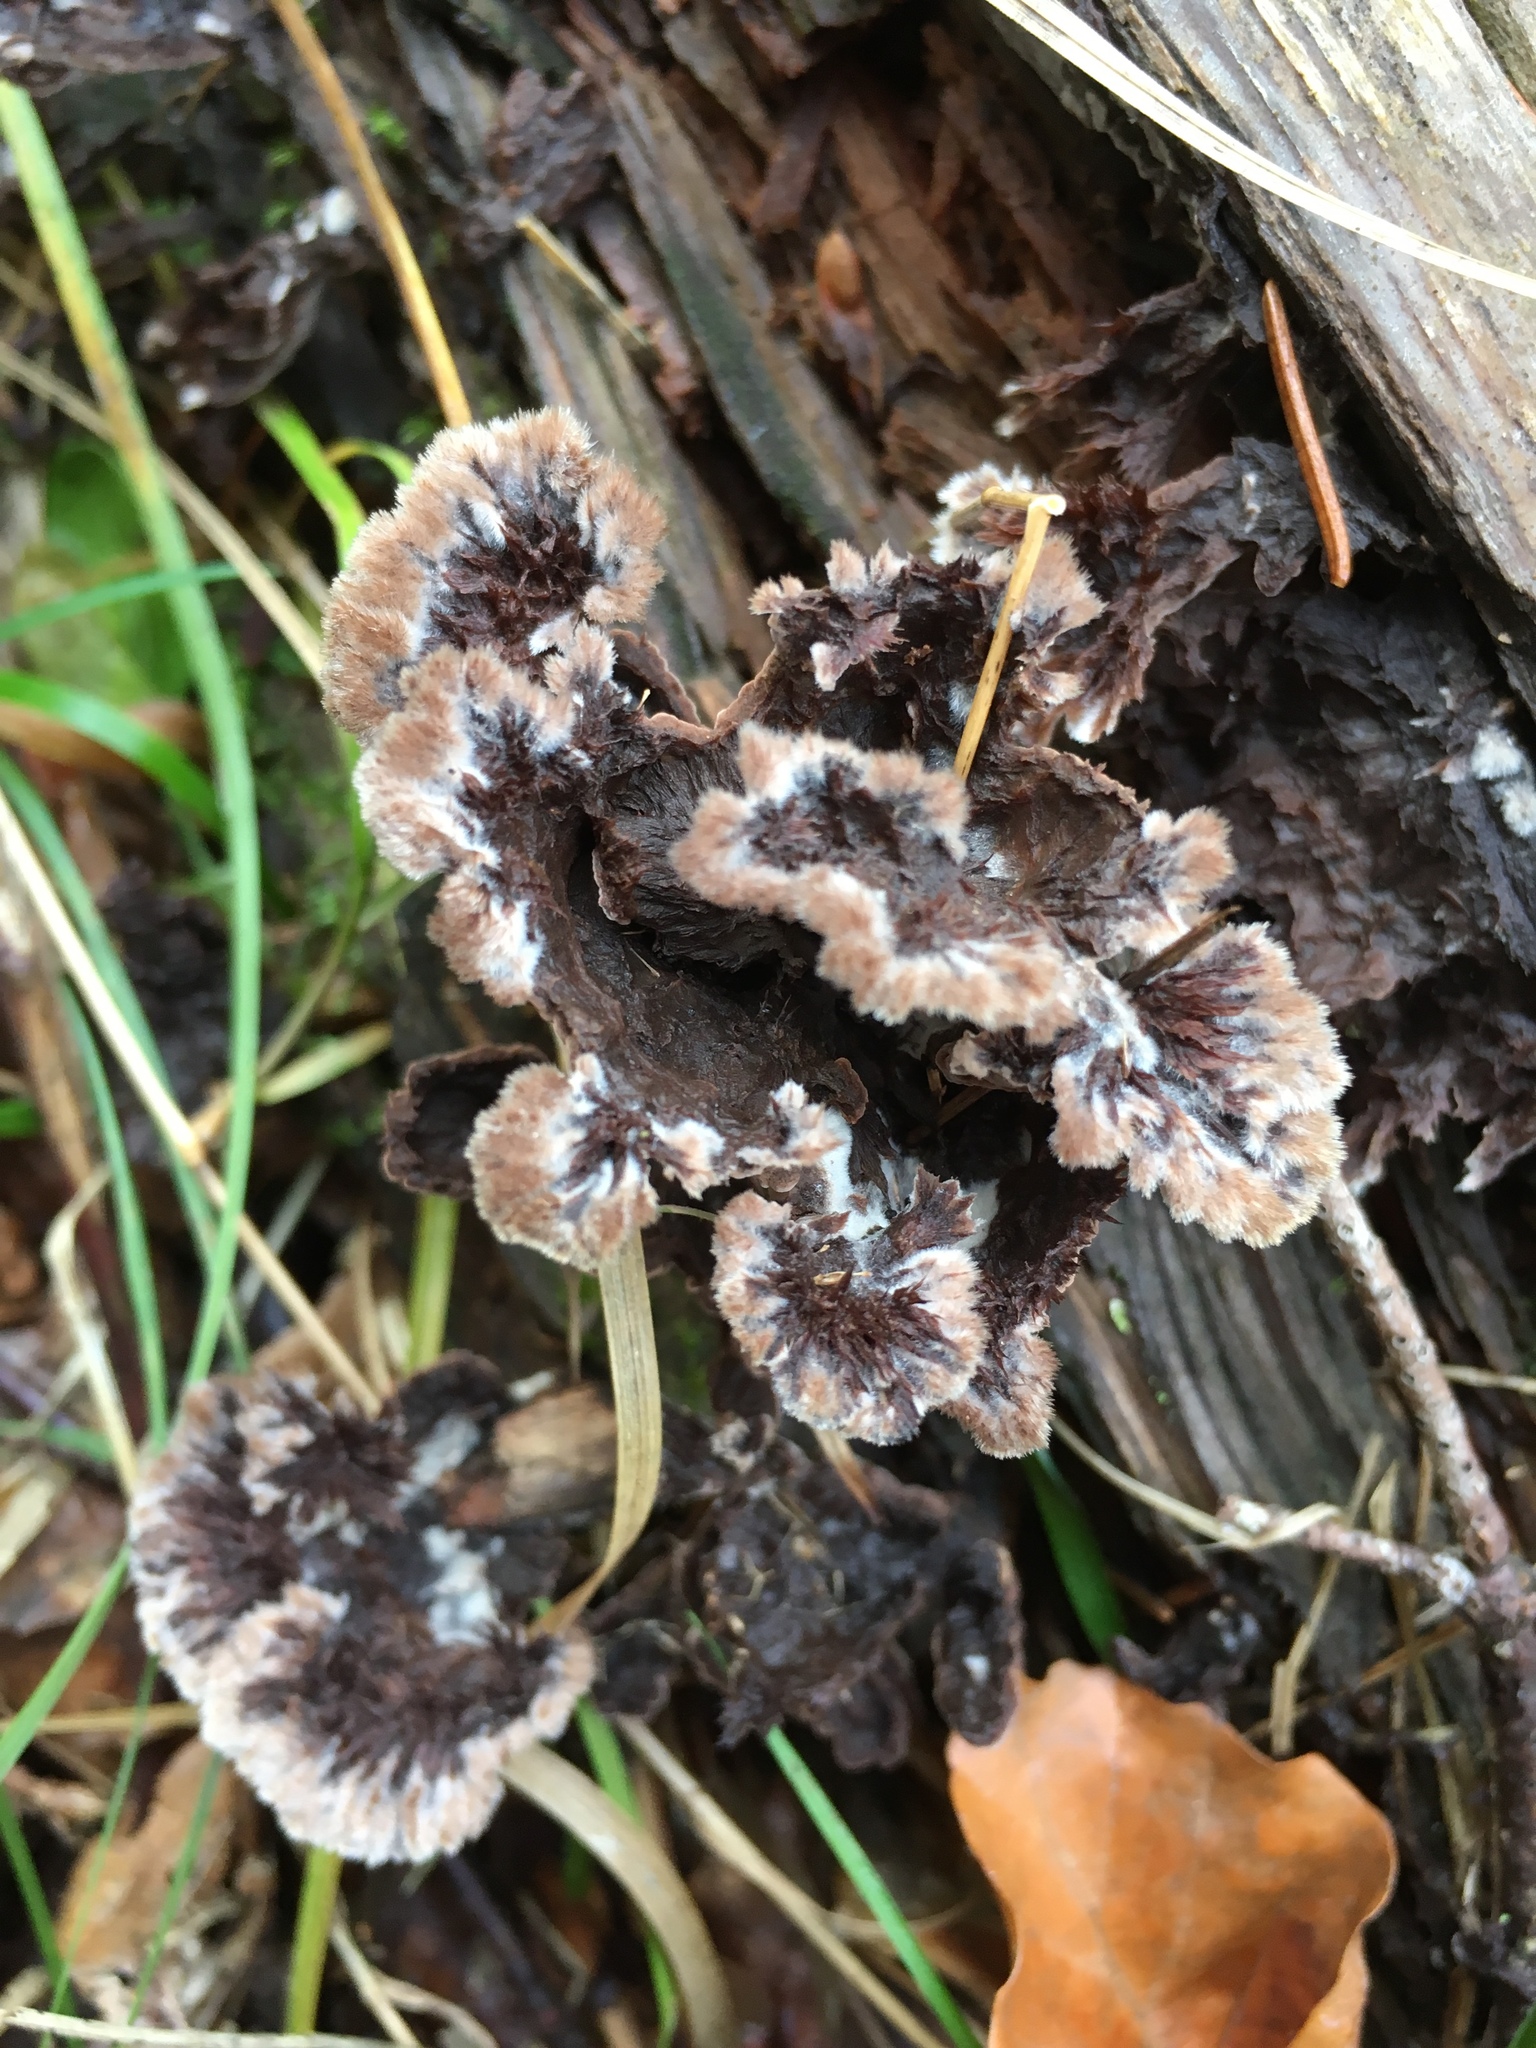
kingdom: Fungi
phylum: Basidiomycota
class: Agaricomycetes
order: Thelephorales
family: Thelephoraceae
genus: Thelephora
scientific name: Thelephora terrestris
